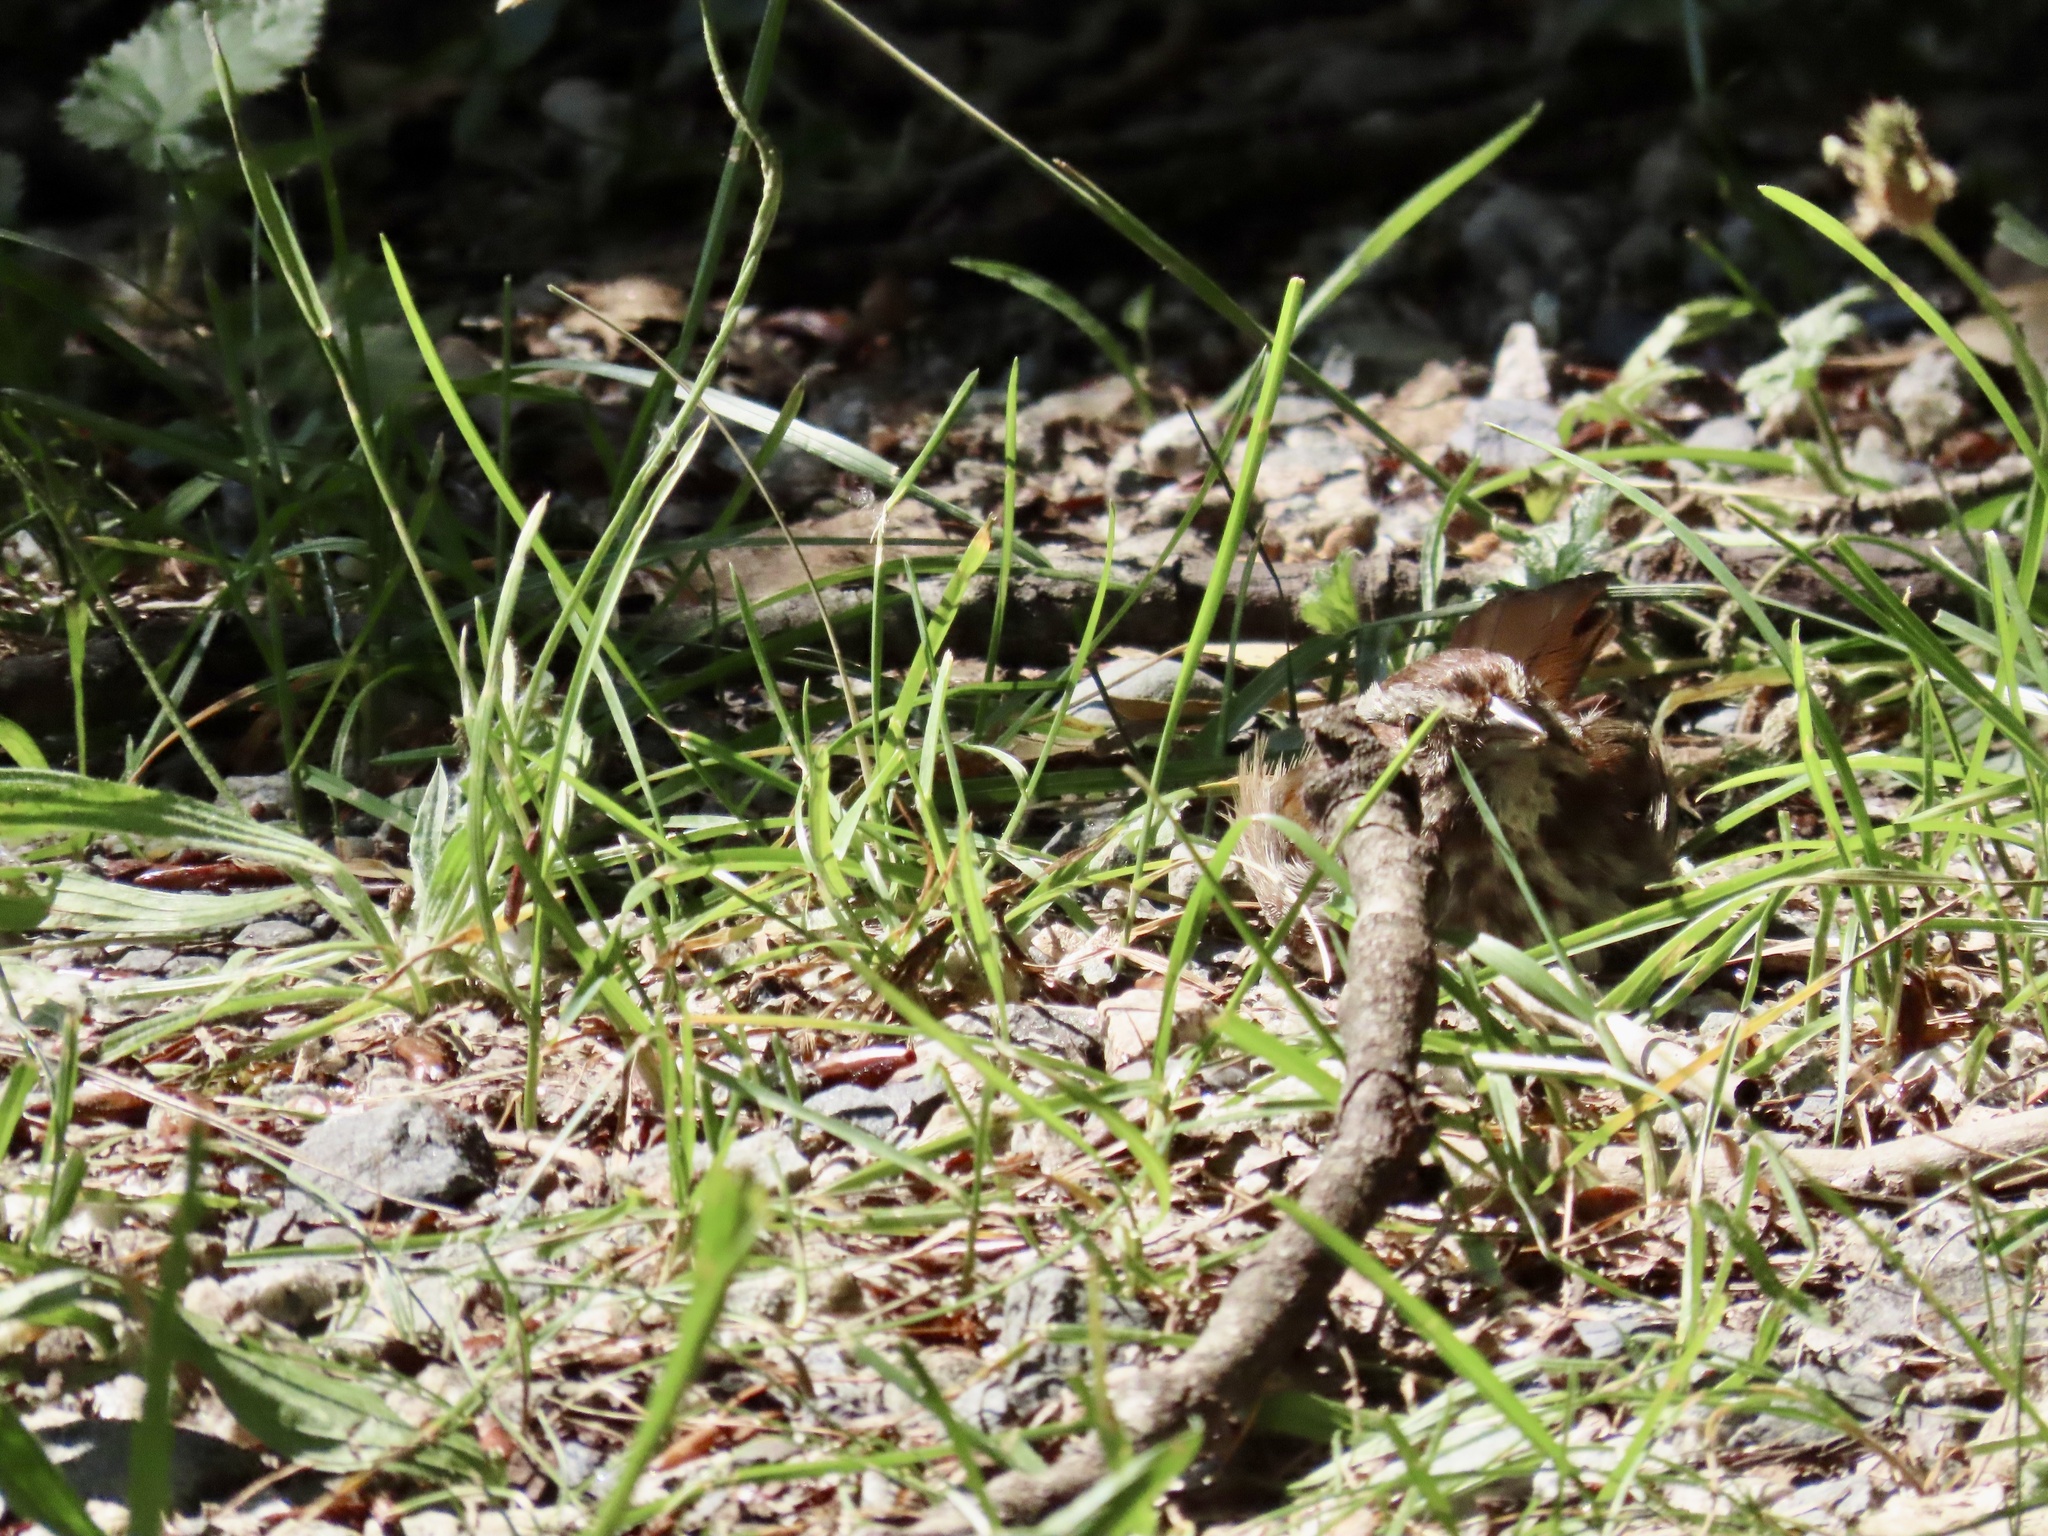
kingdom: Animalia
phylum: Chordata
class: Aves
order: Passeriformes
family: Passerellidae
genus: Melospiza
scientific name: Melospiza melodia
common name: Song sparrow
